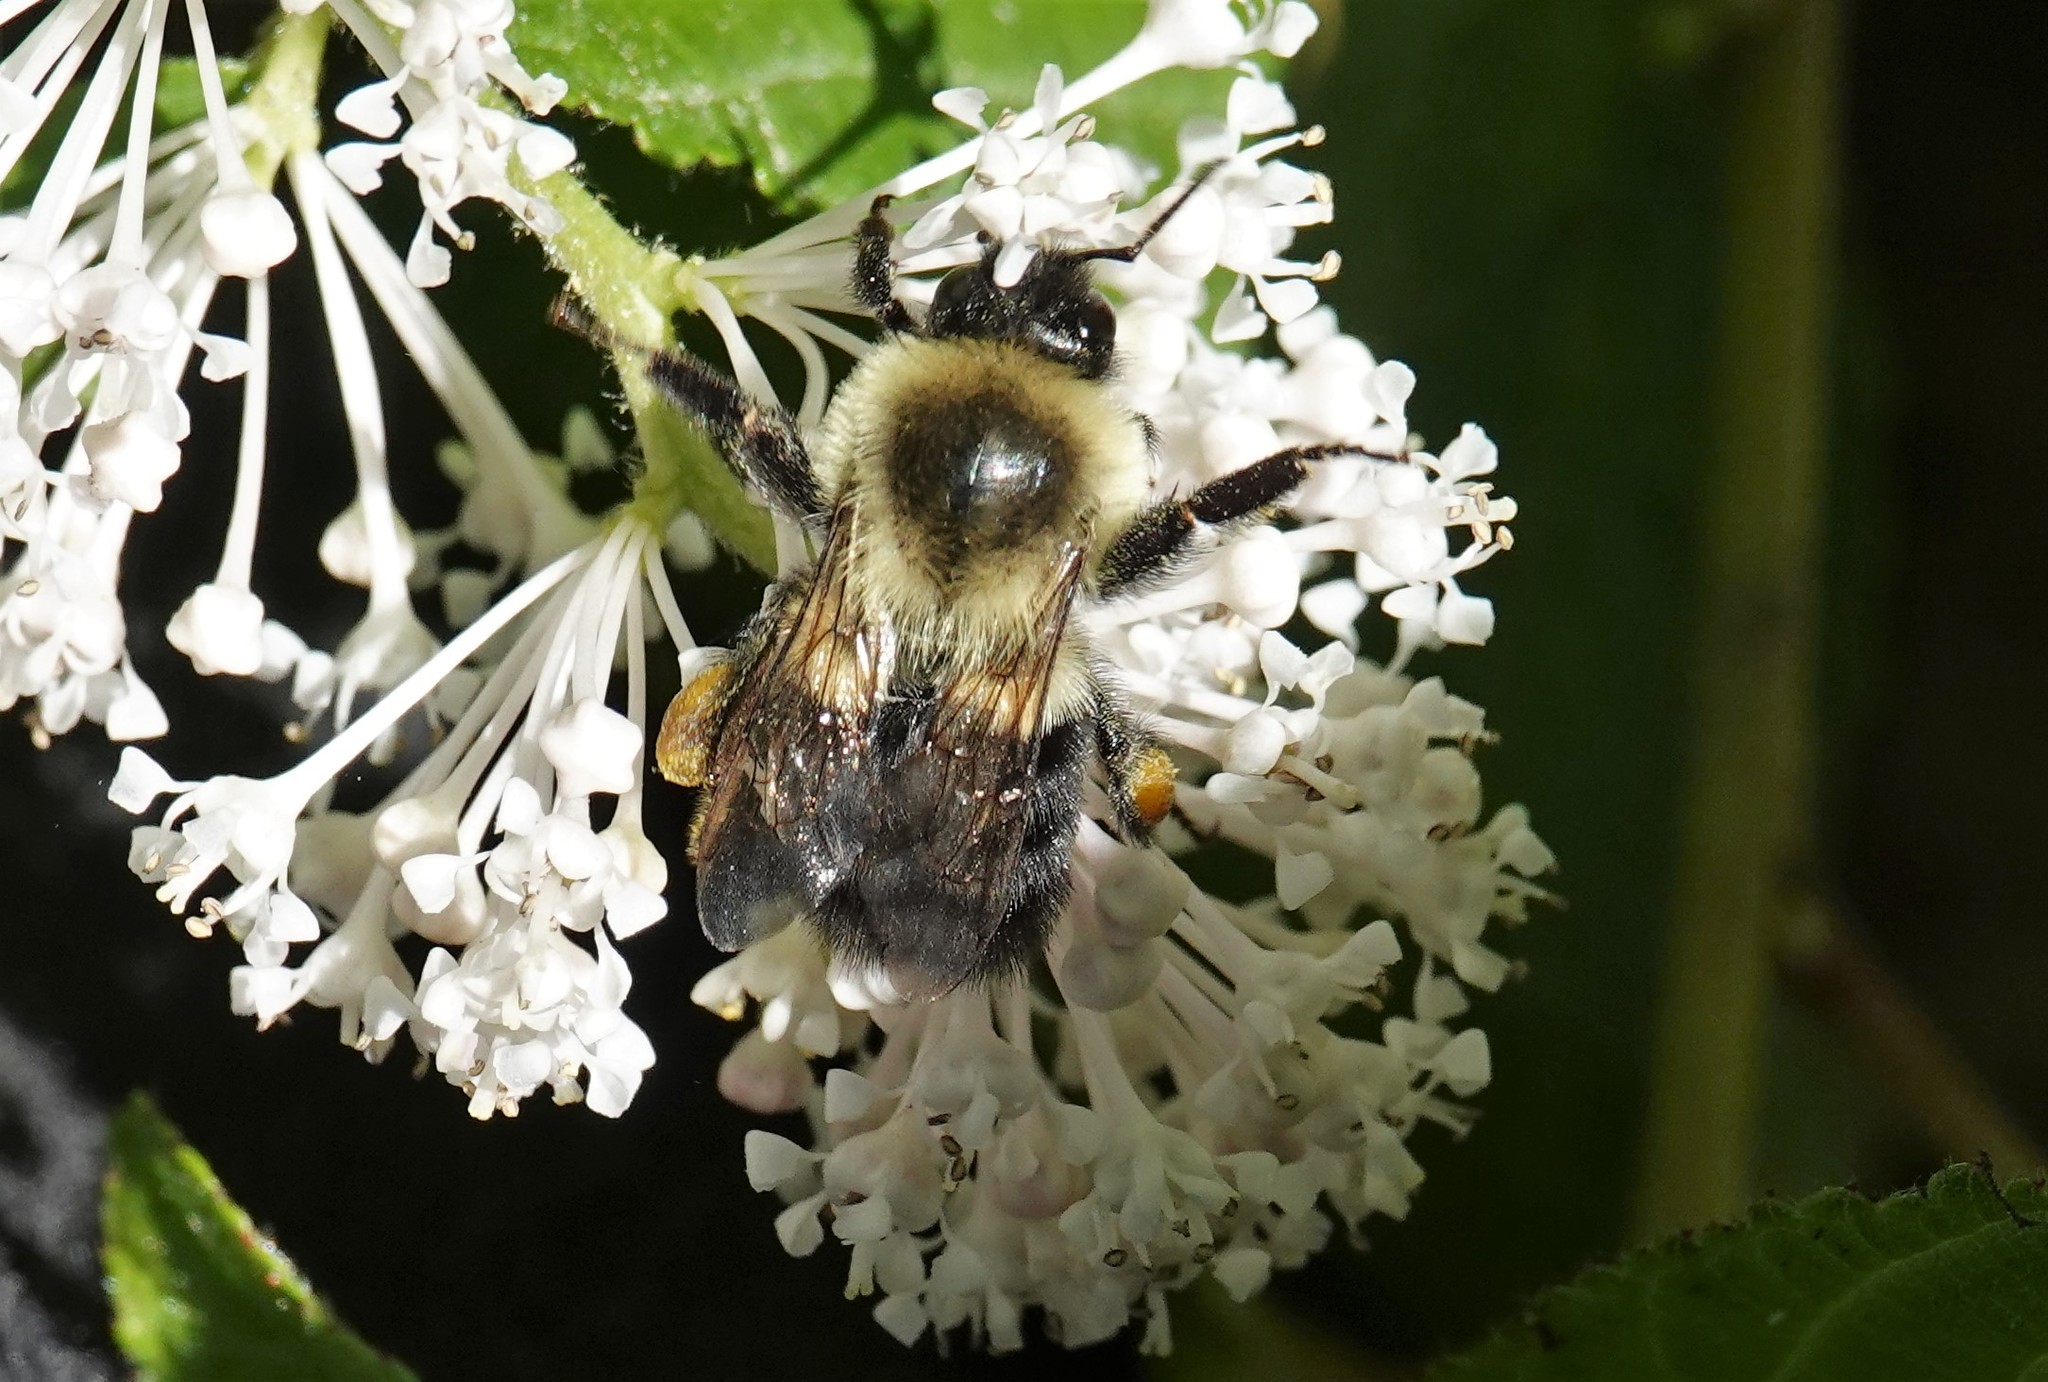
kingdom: Animalia
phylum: Arthropoda
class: Insecta
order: Hymenoptera
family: Apidae
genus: Bombus
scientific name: Bombus impatiens
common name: Common eastern bumble bee
